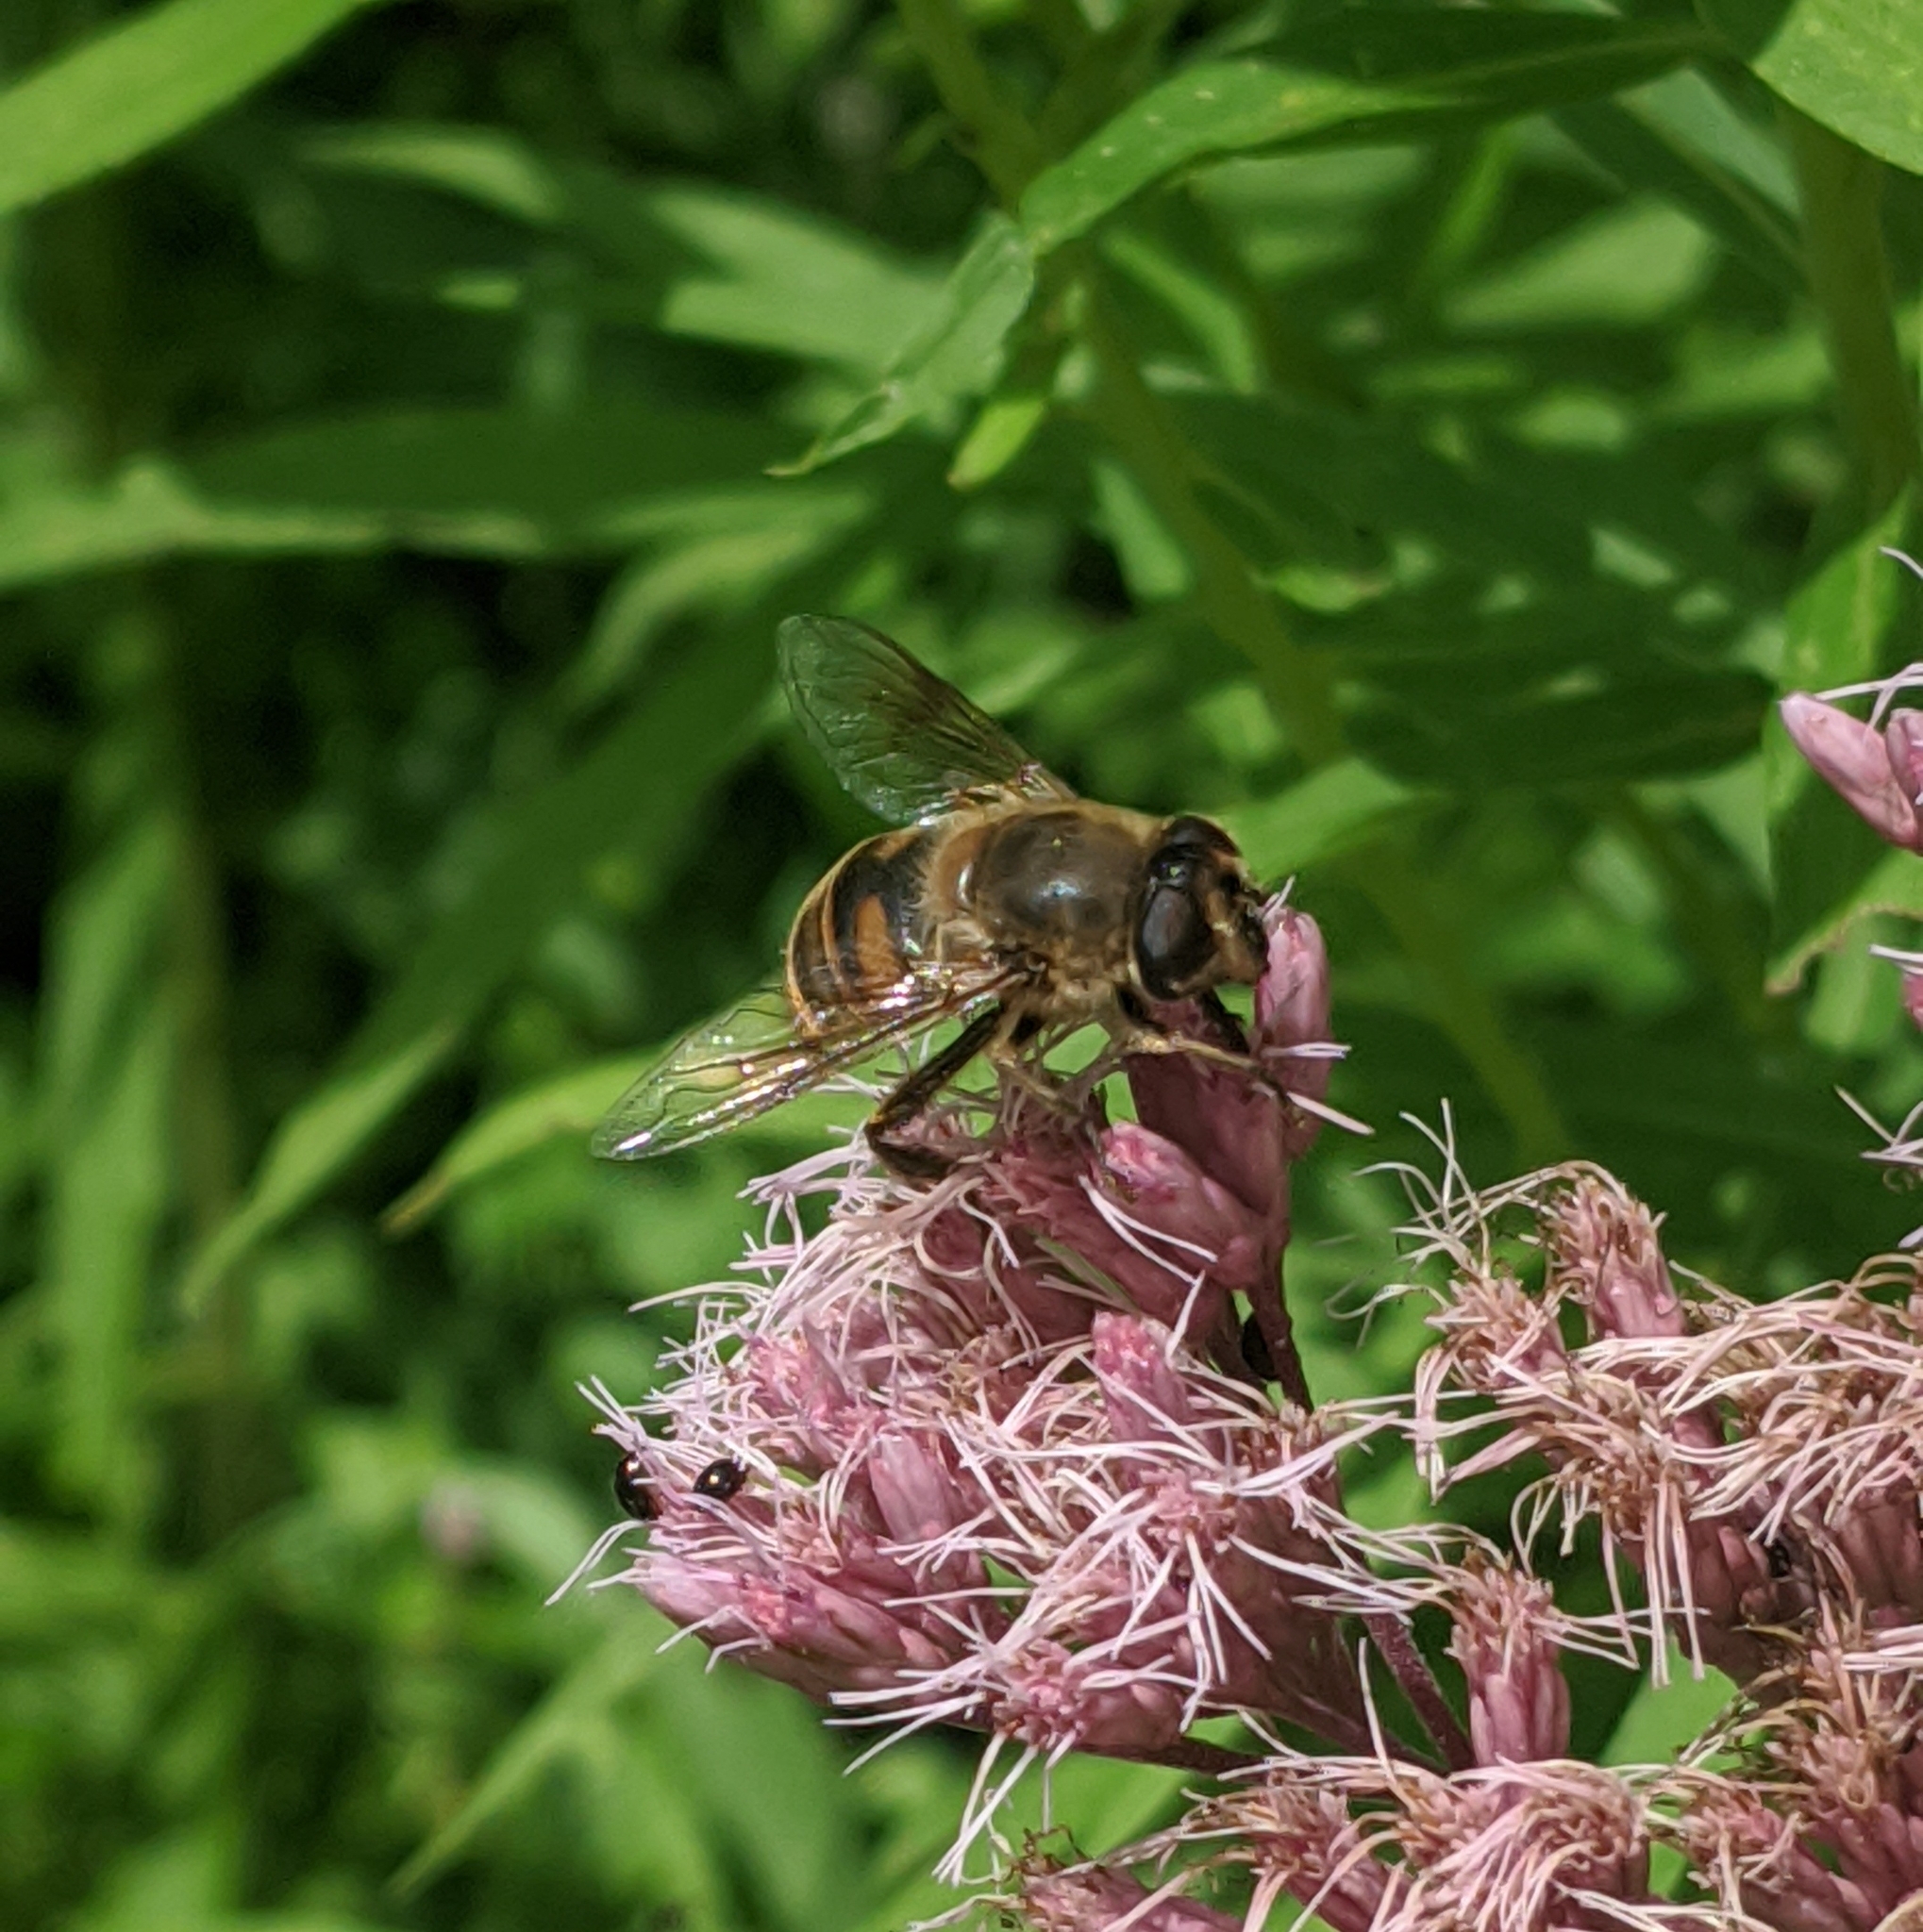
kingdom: Animalia
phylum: Arthropoda
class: Insecta
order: Diptera
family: Syrphidae
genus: Eristalis
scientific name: Eristalis tenax
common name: Drone fly
